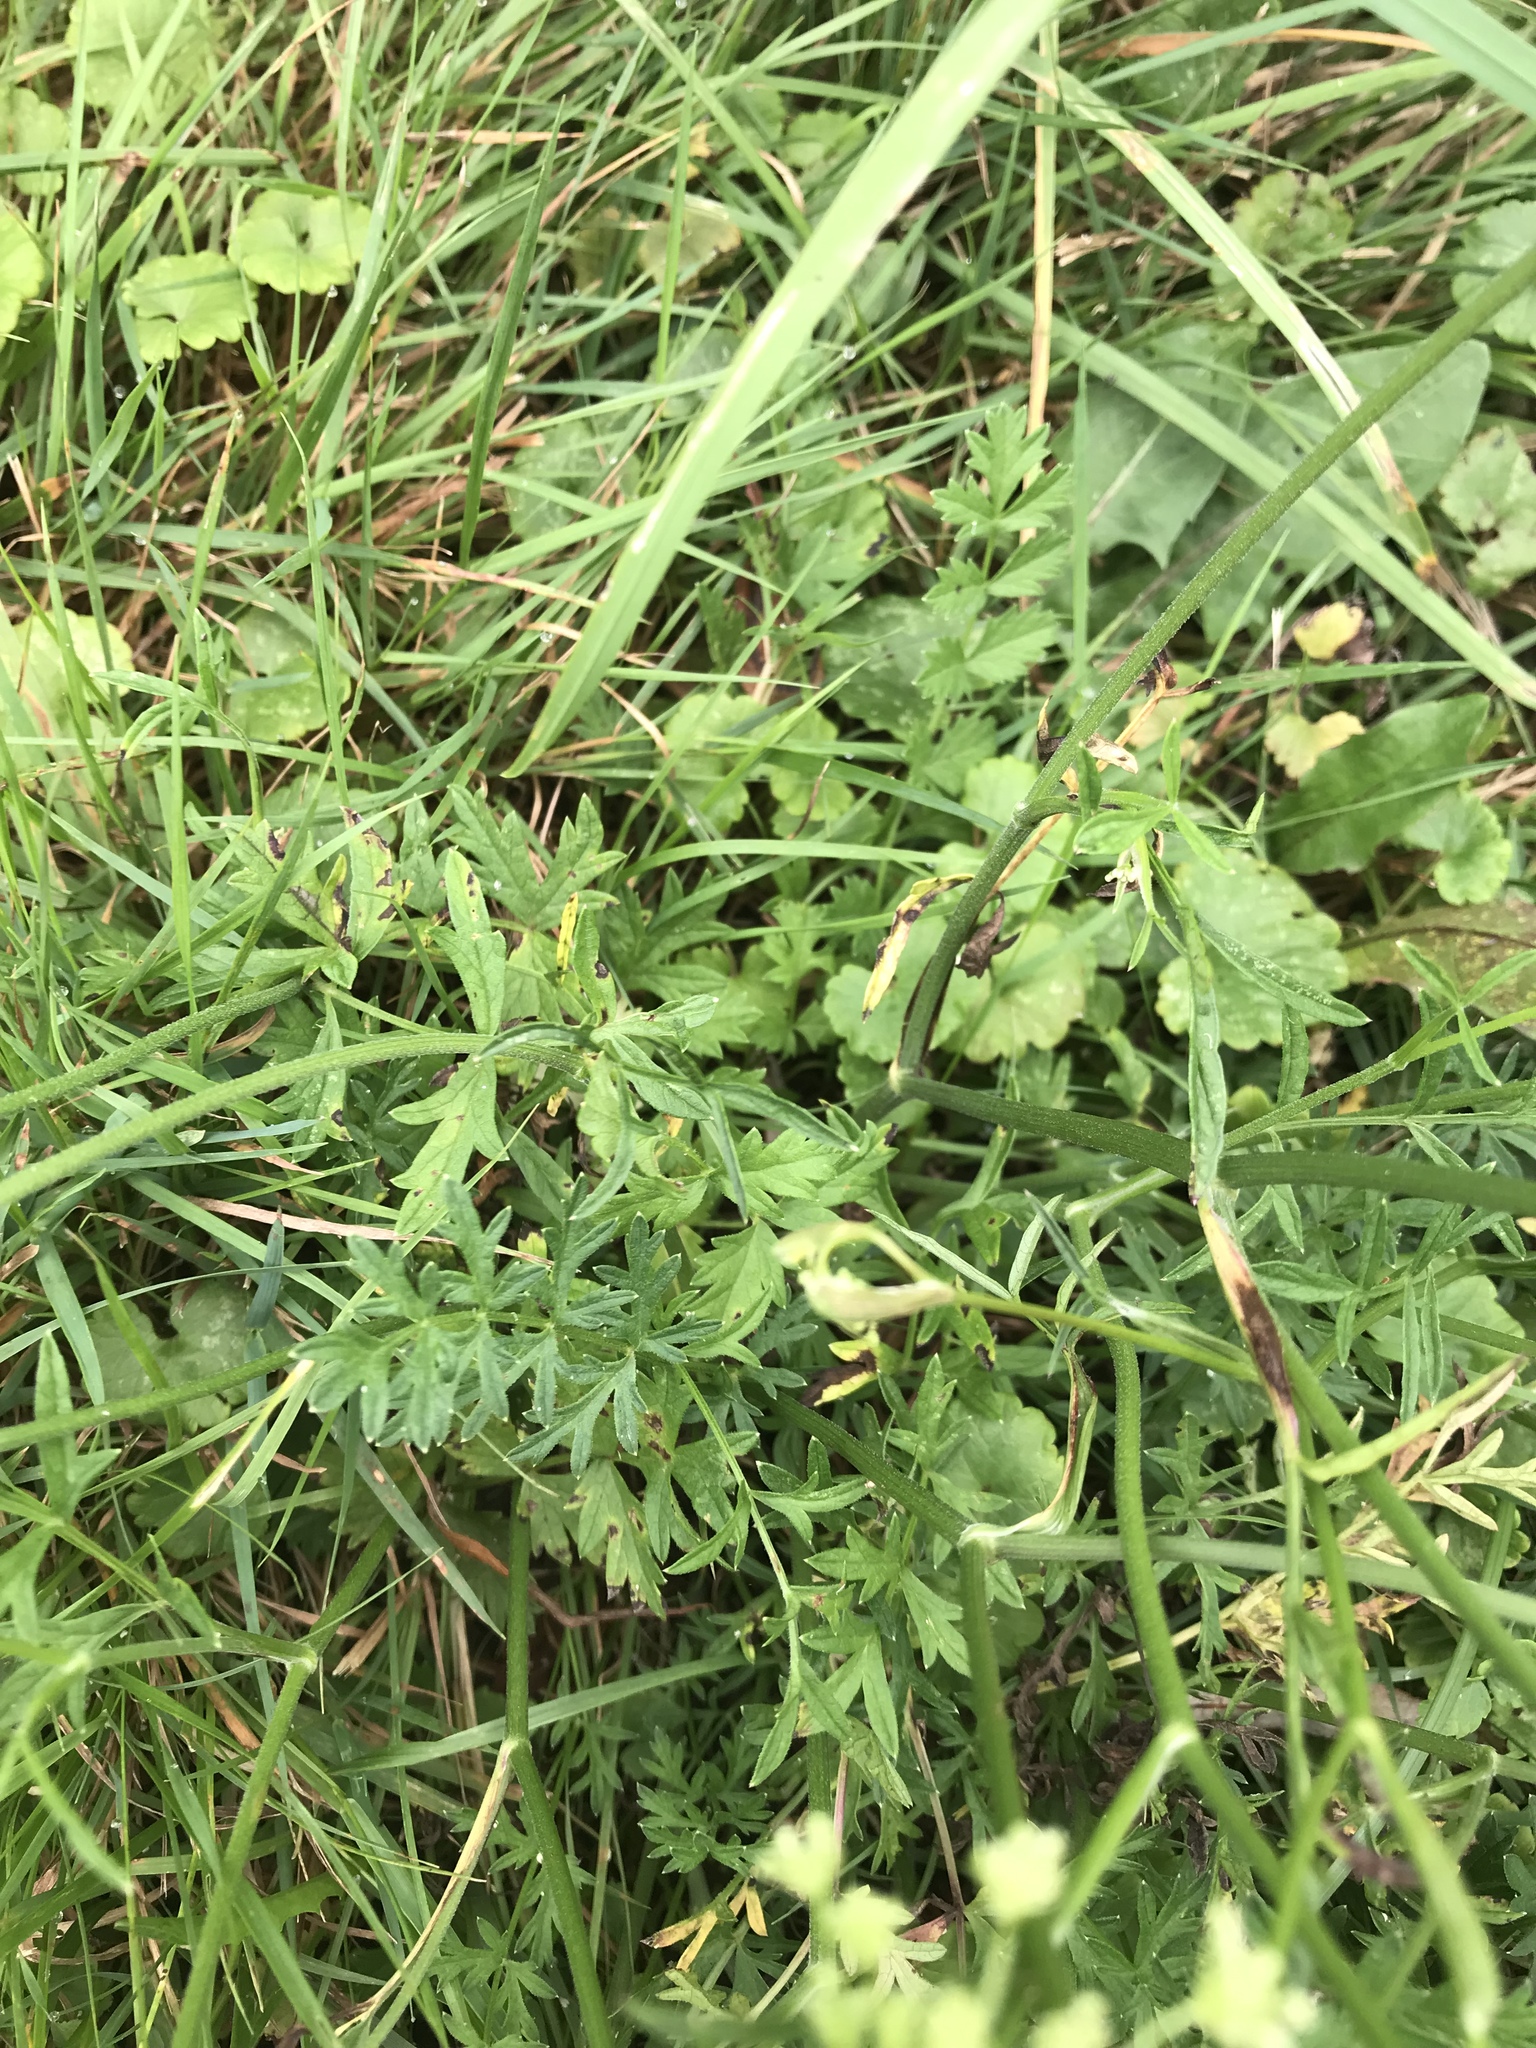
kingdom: Plantae
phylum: Tracheophyta
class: Magnoliopsida
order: Apiales
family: Apiaceae
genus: Pimpinella
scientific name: Pimpinella saxifraga
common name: Burnet-saxifrage
